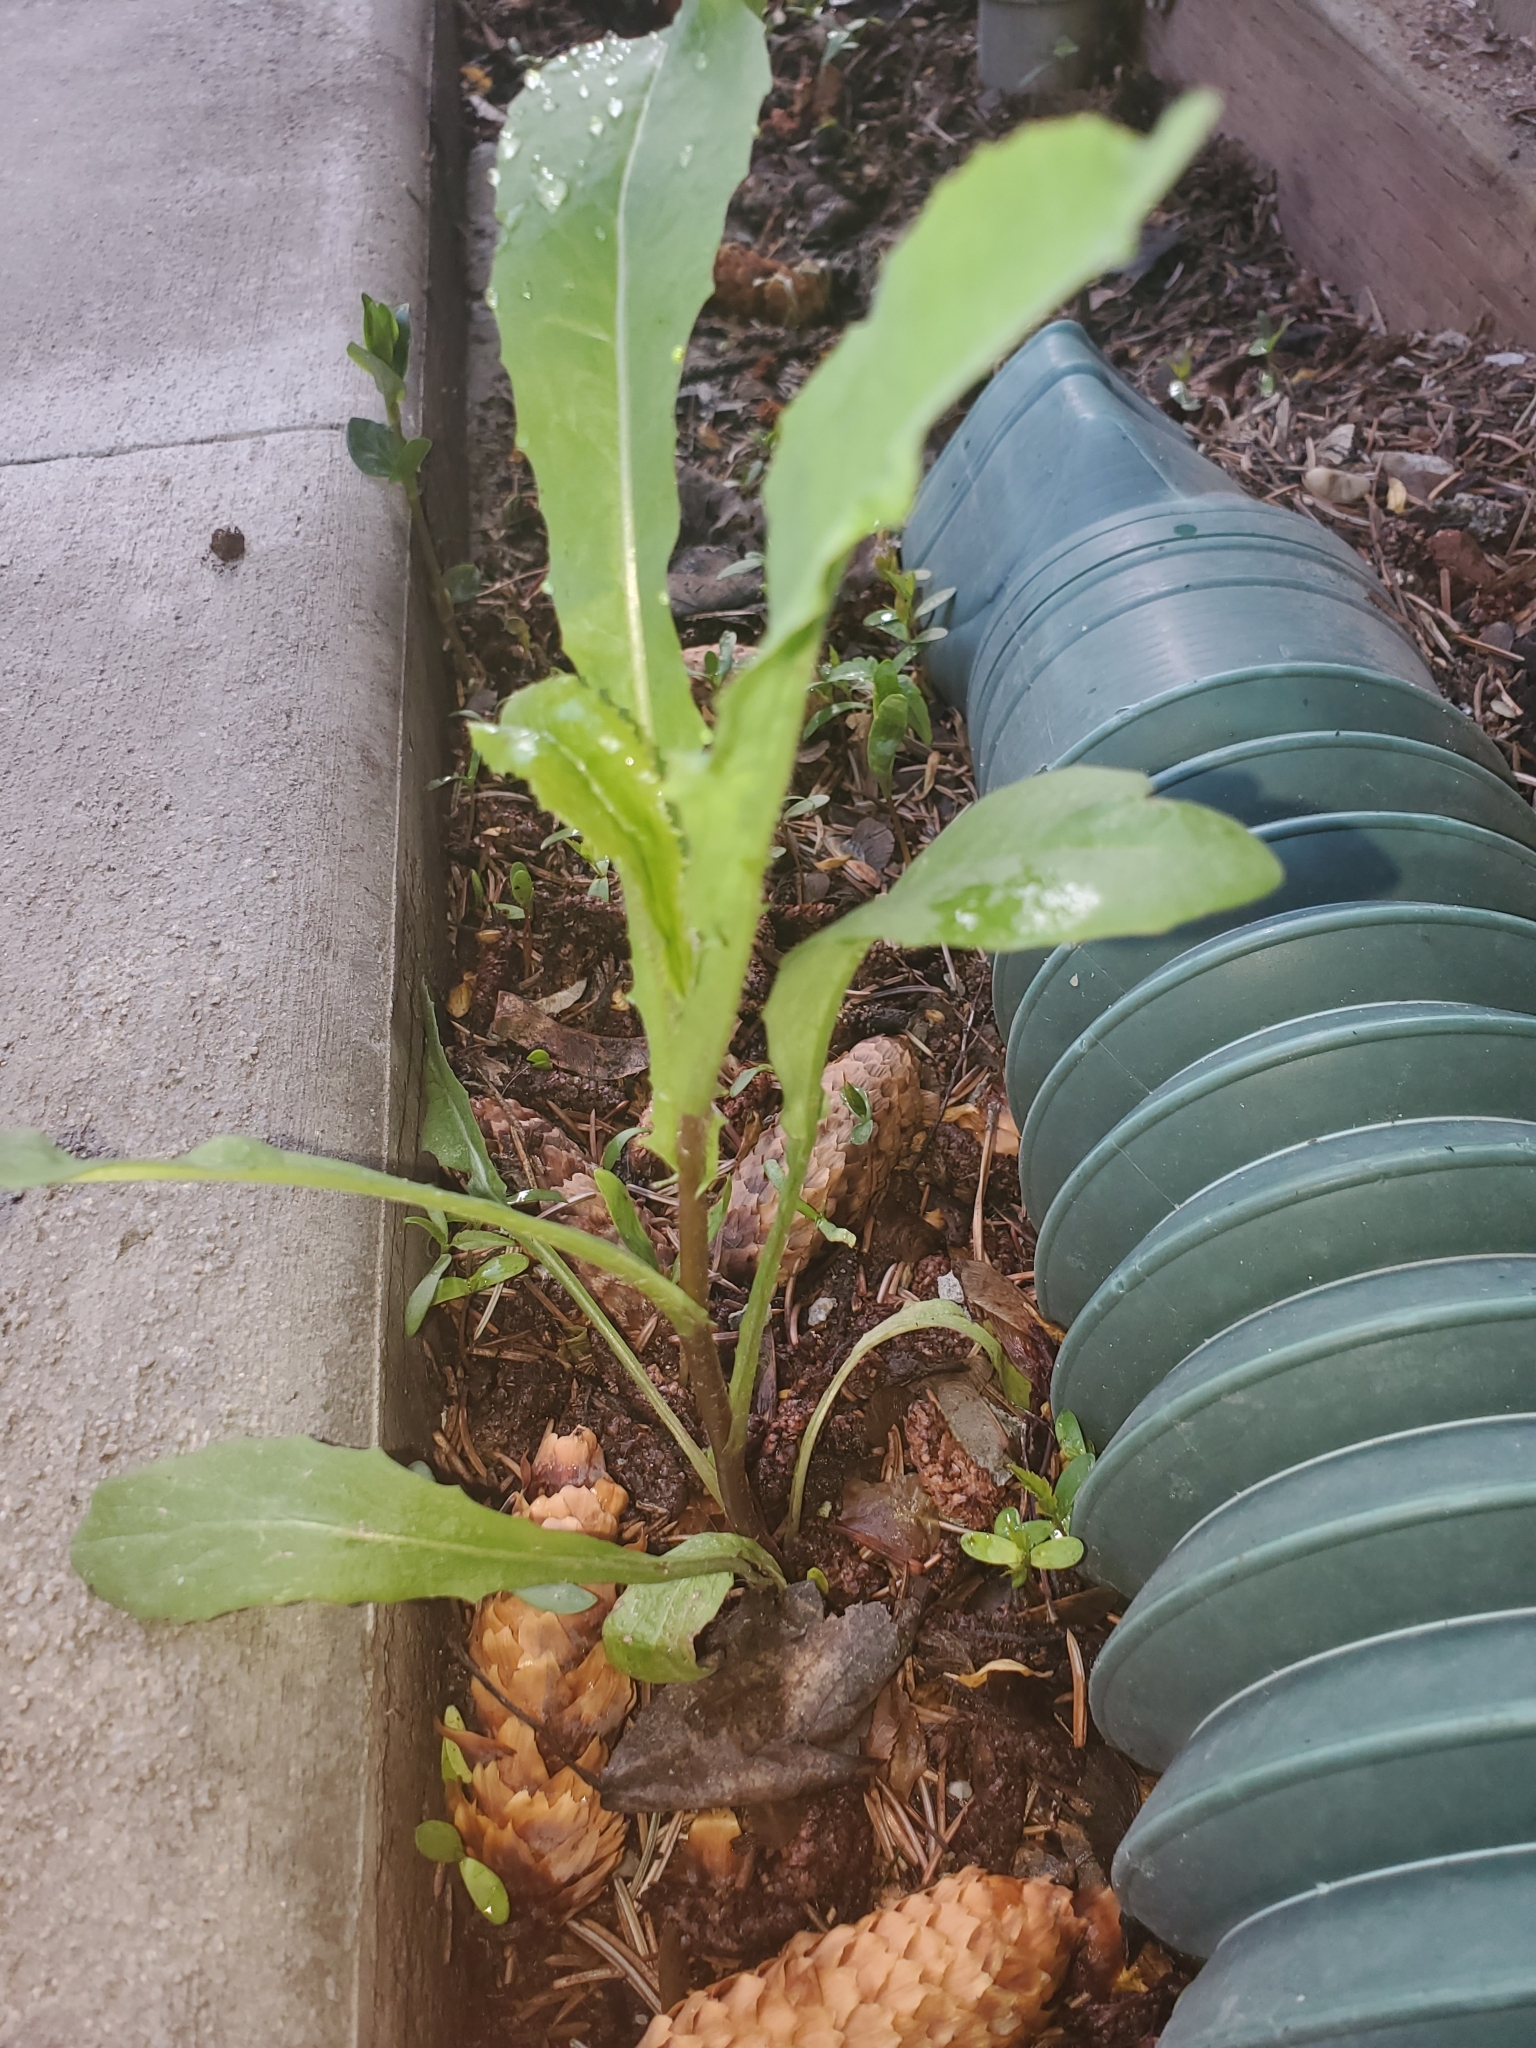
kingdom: Plantae
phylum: Tracheophyta
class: Magnoliopsida
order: Asterales
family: Asteraceae
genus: Lactuca
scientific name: Lactuca serriola
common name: Prickly lettuce
